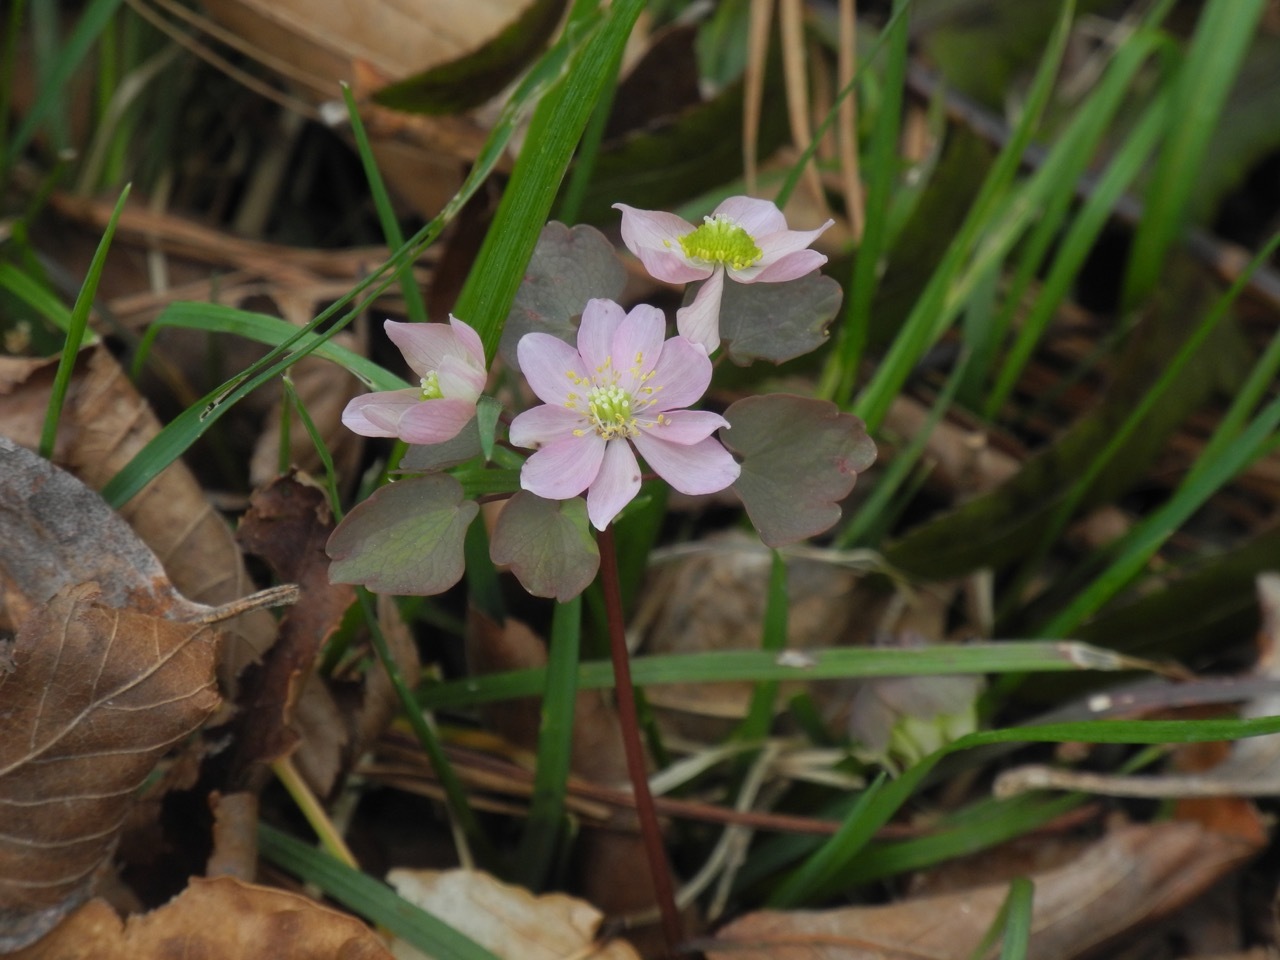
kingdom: Plantae
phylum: Tracheophyta
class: Magnoliopsida
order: Ranunculales
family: Ranunculaceae
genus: Thalictrum
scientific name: Thalictrum thalictroides
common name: Rue-anemone
